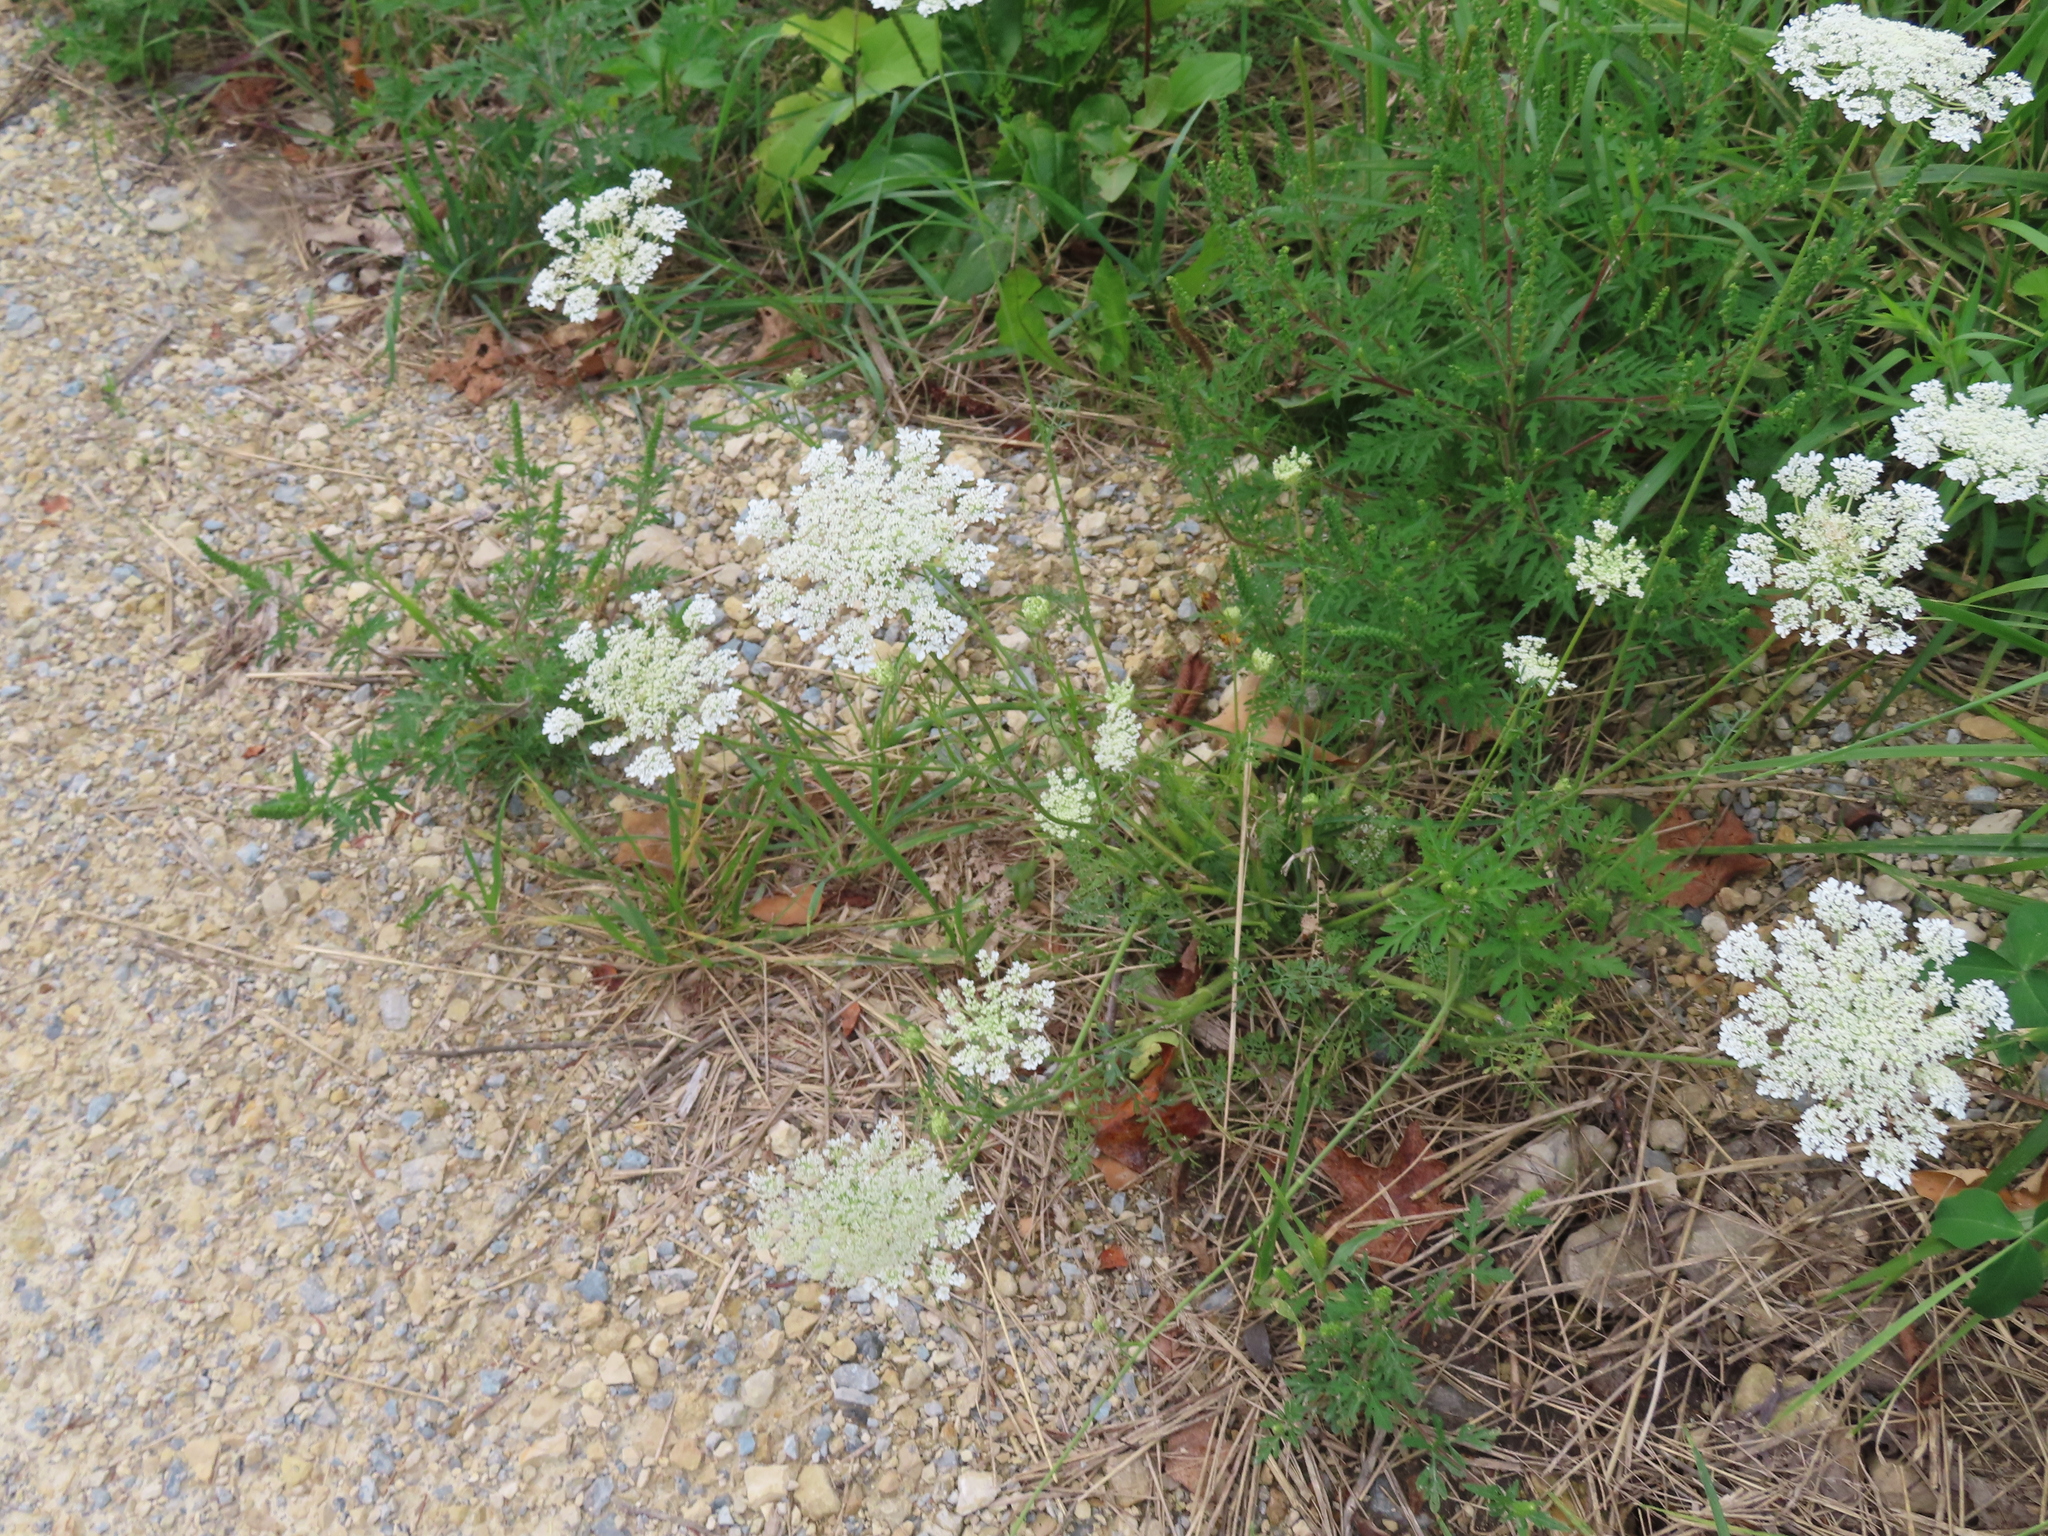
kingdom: Plantae
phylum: Tracheophyta
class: Magnoliopsida
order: Apiales
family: Apiaceae
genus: Daucus
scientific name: Daucus carota
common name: Wild carrot
